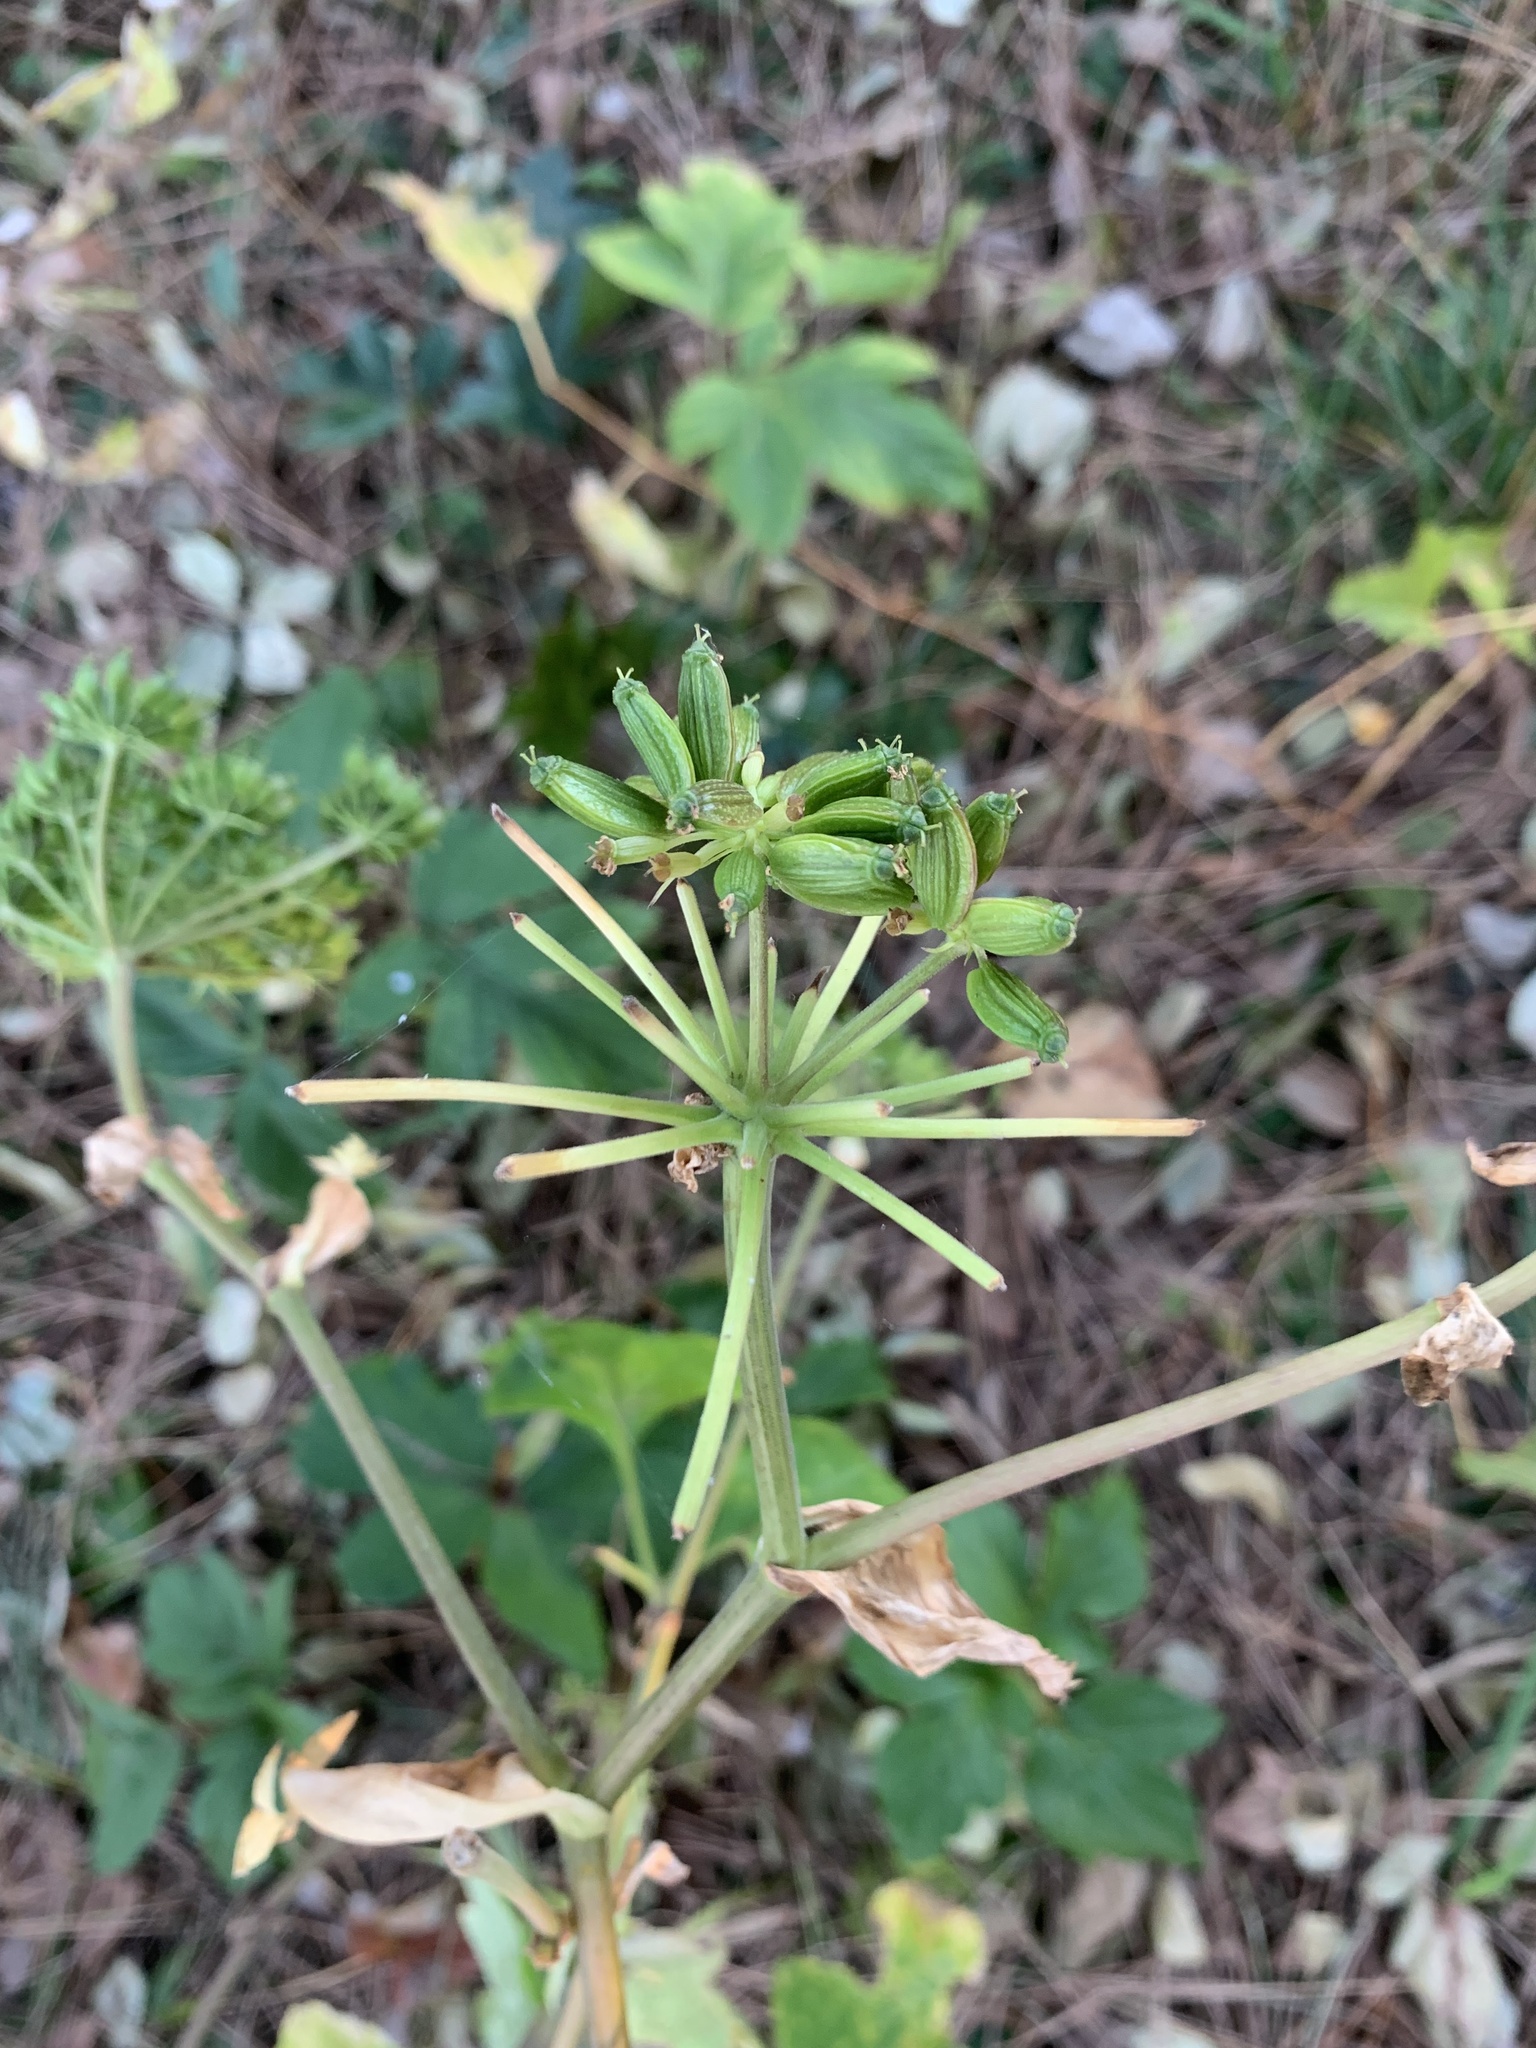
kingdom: Plantae
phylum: Tracheophyta
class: Magnoliopsida
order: Apiales
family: Apiaceae
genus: Angelica
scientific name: Angelica keiskei
